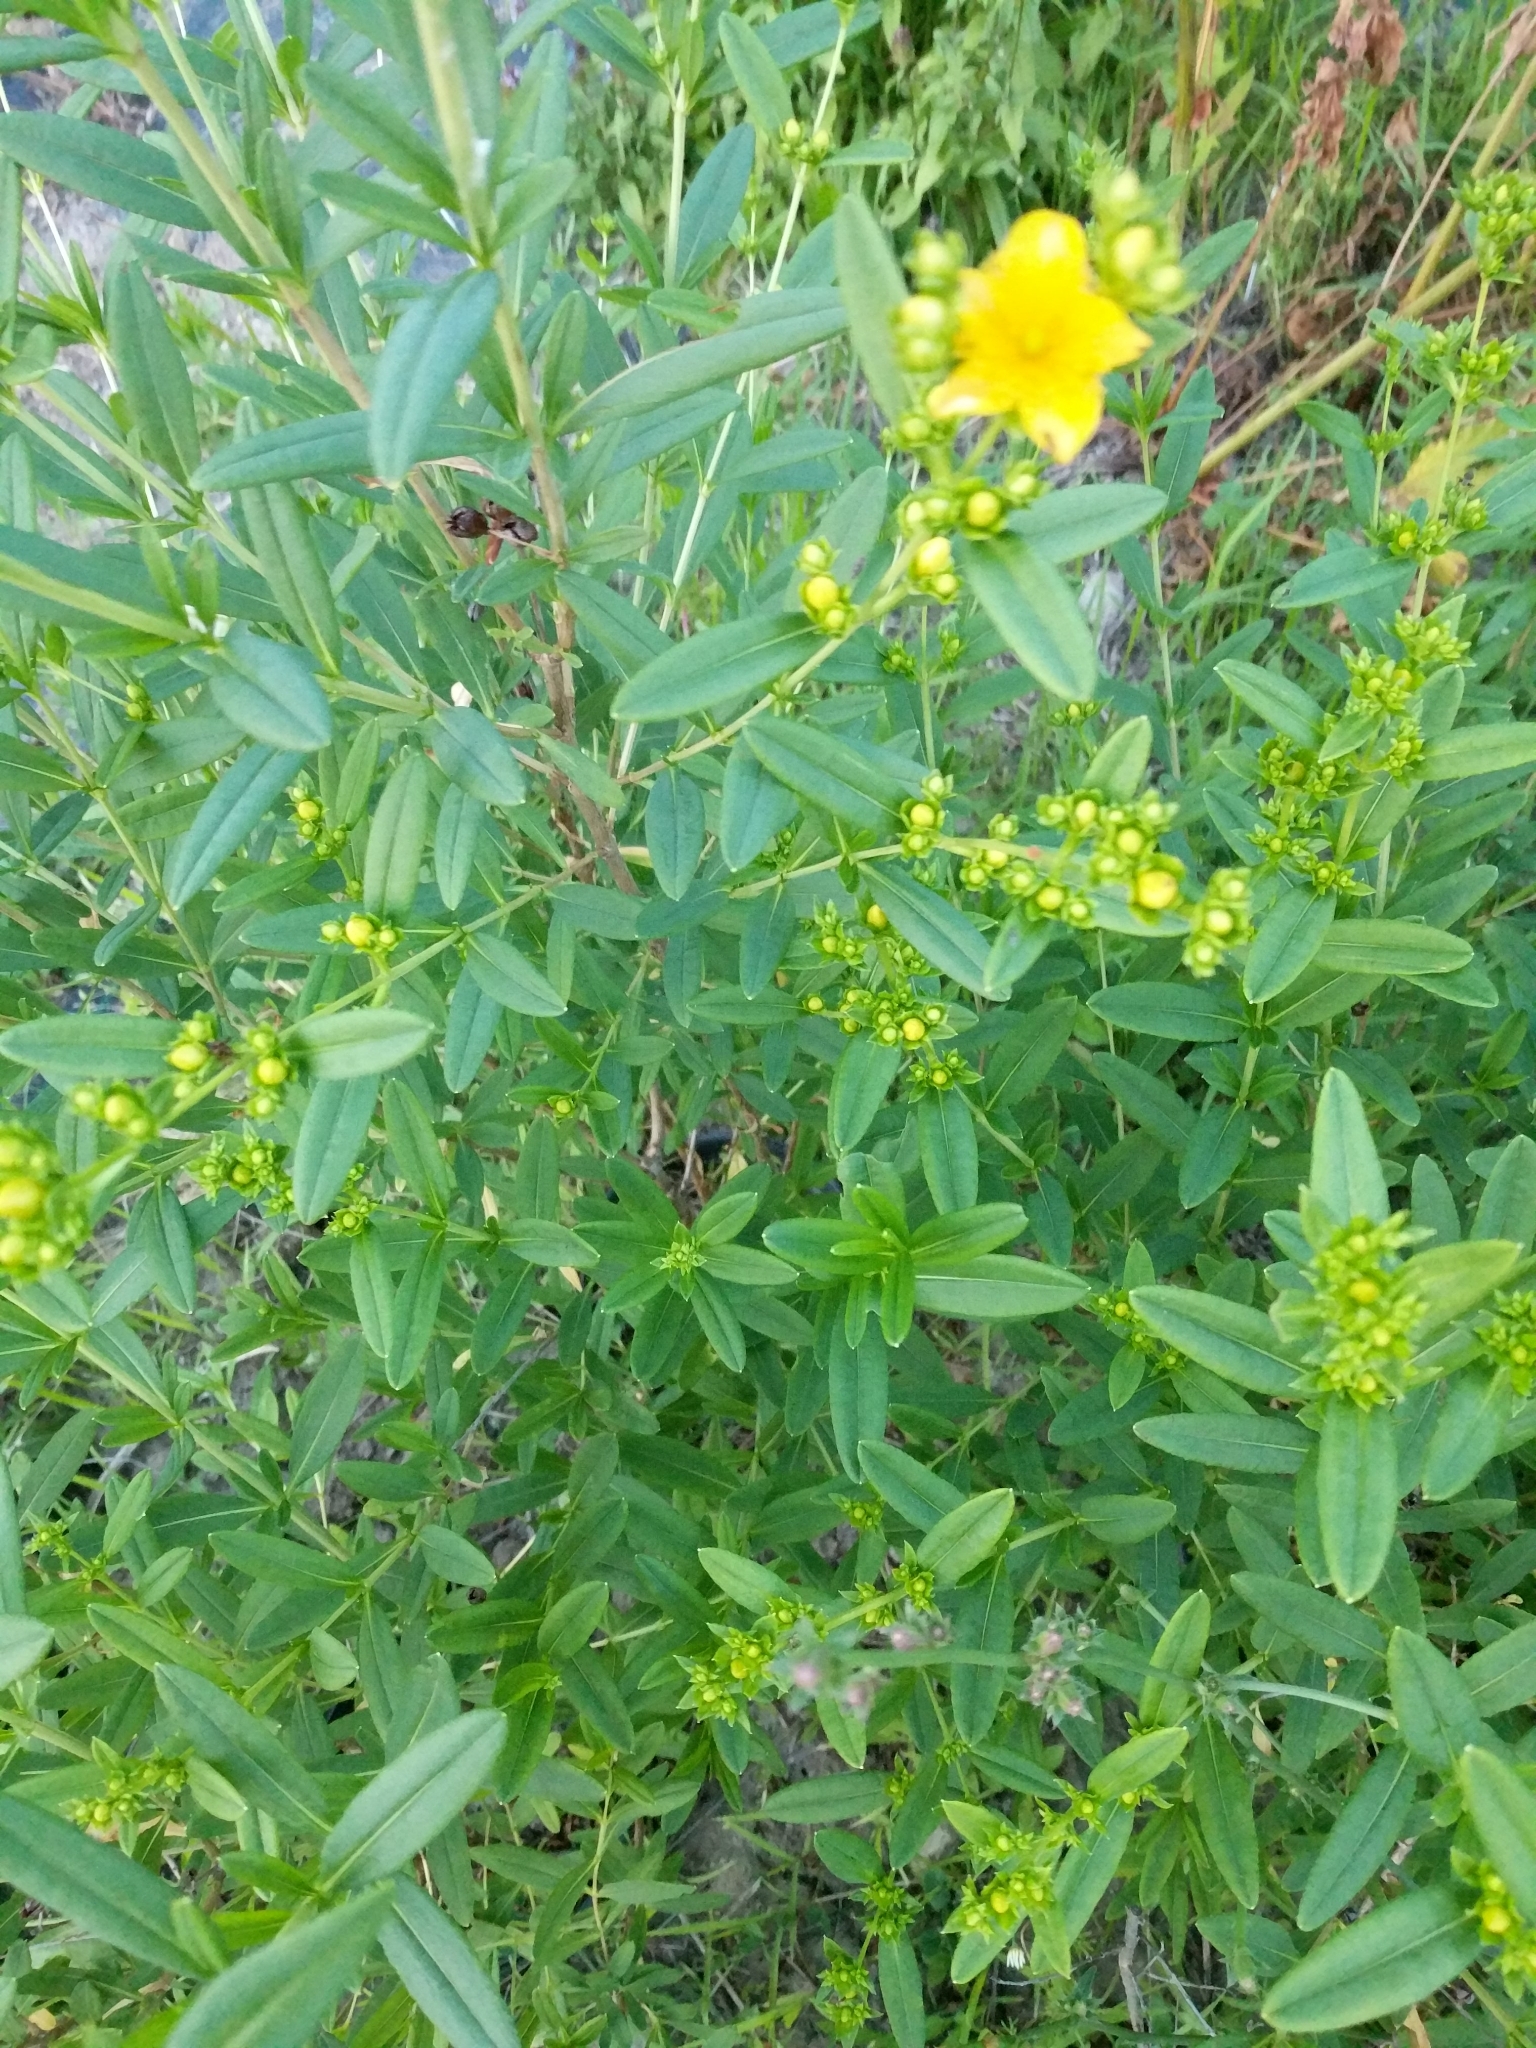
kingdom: Plantae
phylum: Tracheophyta
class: Magnoliopsida
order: Malpighiales
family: Hypericaceae
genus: Hypericum
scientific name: Hypericum prolificum
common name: Shrubby st. john's-wort
